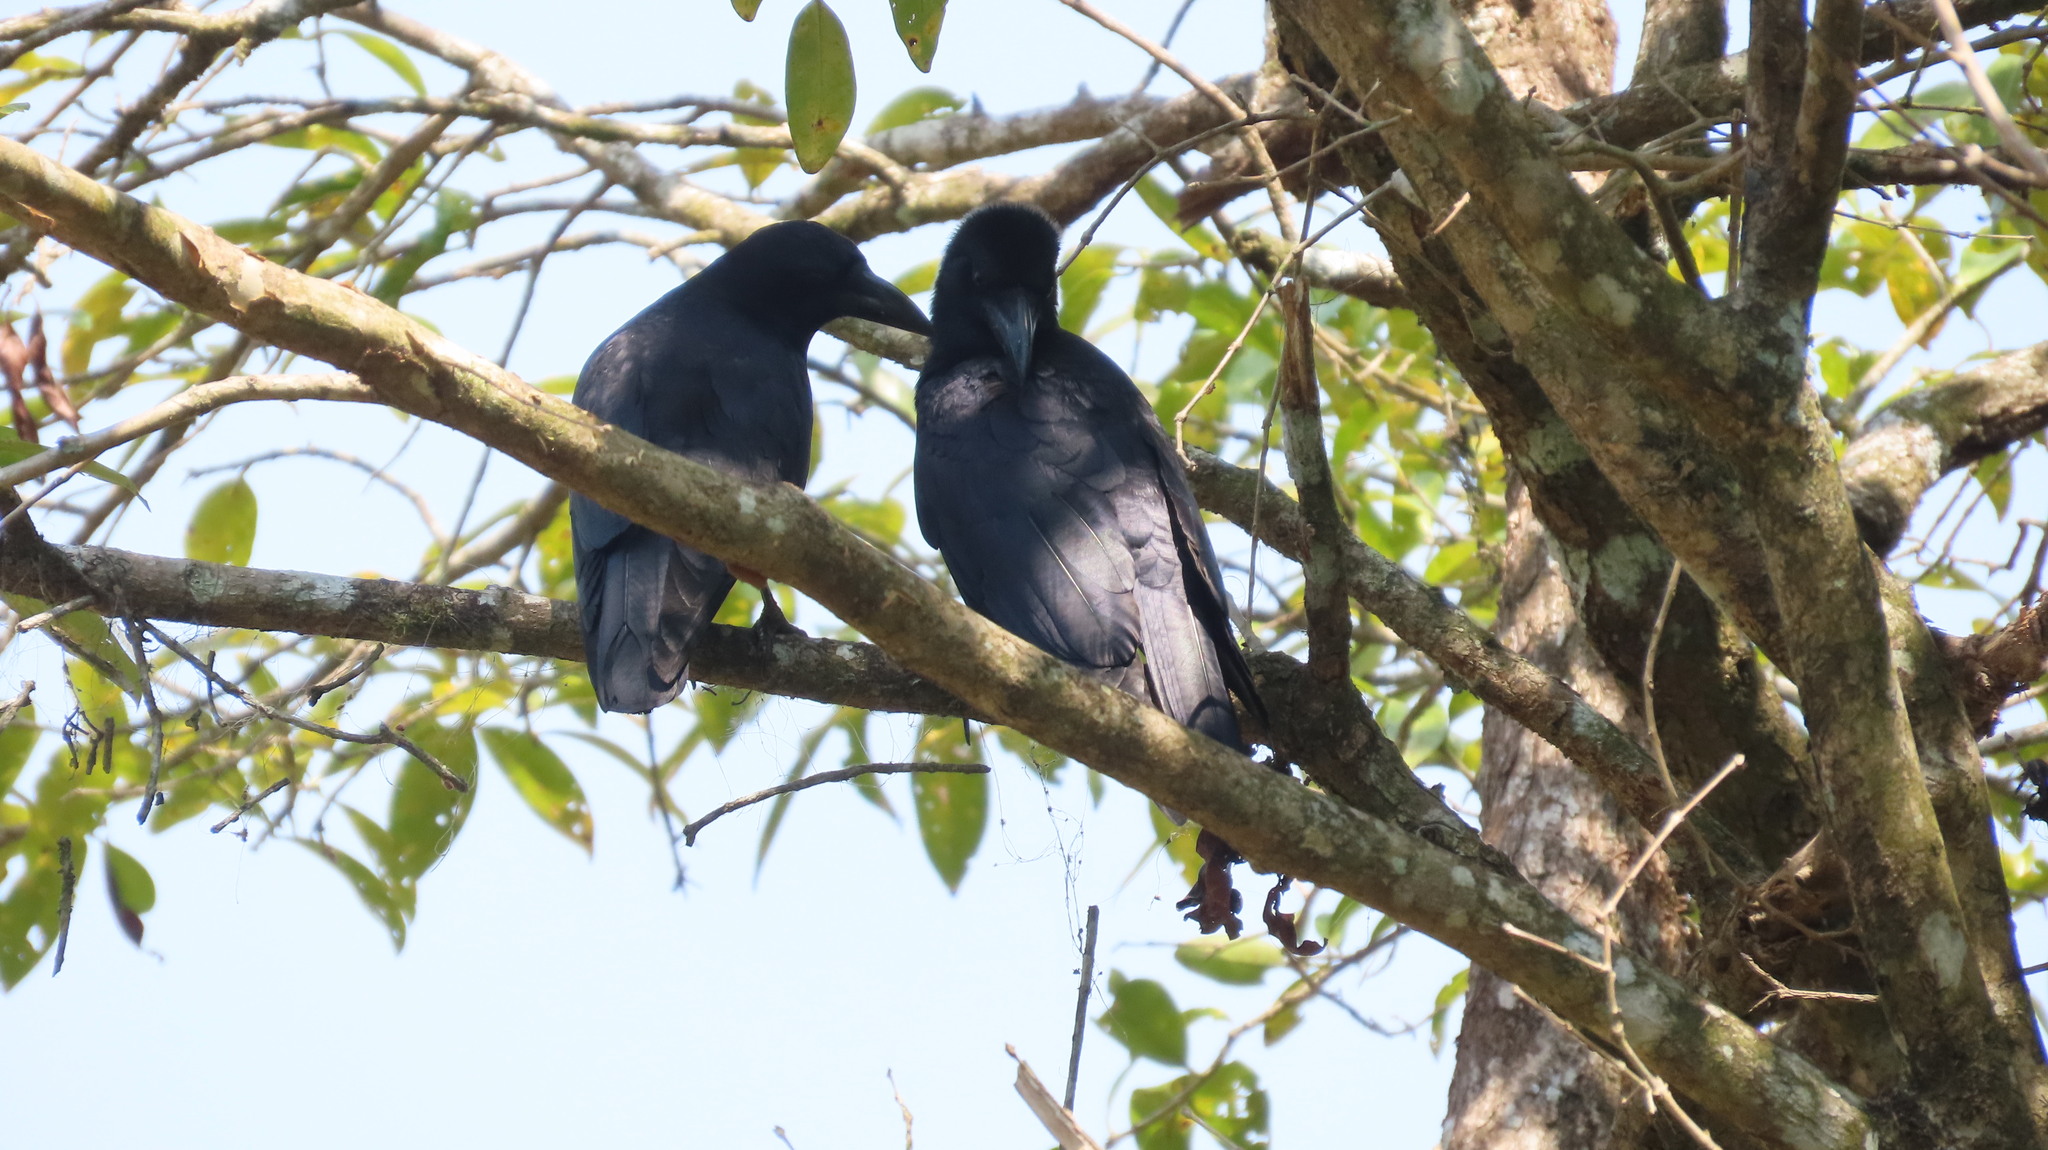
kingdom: Animalia
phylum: Chordata
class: Aves
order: Passeriformes
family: Corvidae
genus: Corvus
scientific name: Corvus macrorhynchos
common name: Large-billed crow
